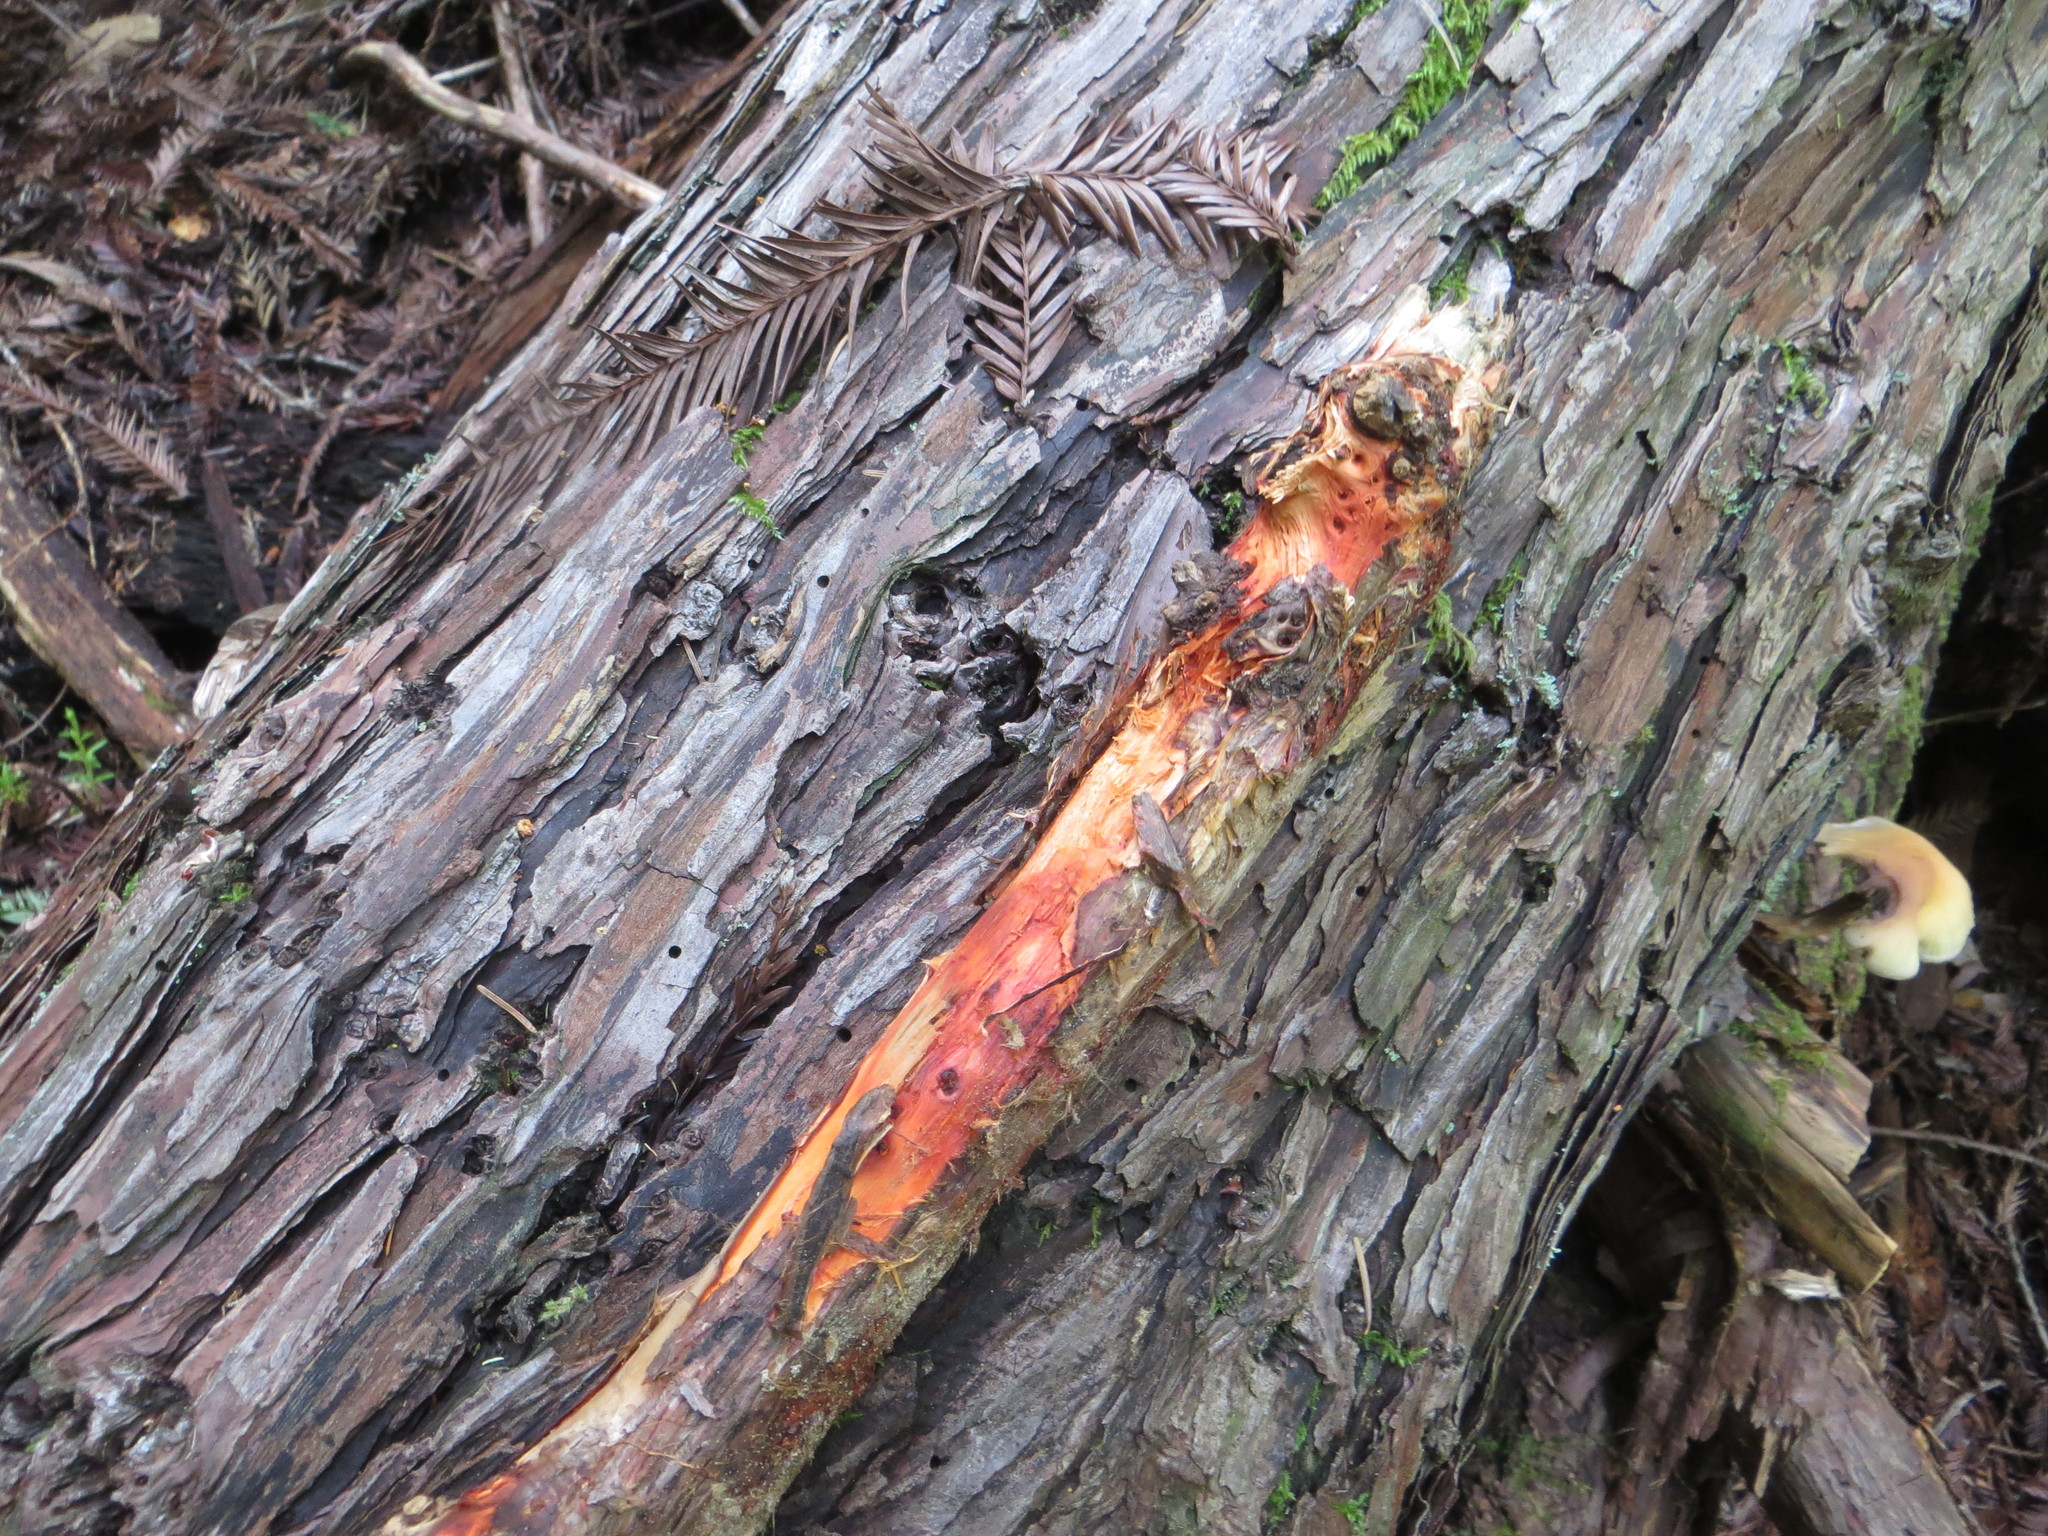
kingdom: Fungi
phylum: Basidiomycota
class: Agaricomycetes
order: Polyporales
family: Phanerochaetaceae
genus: Atheliachaete
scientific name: Atheliachaete sanguinea
